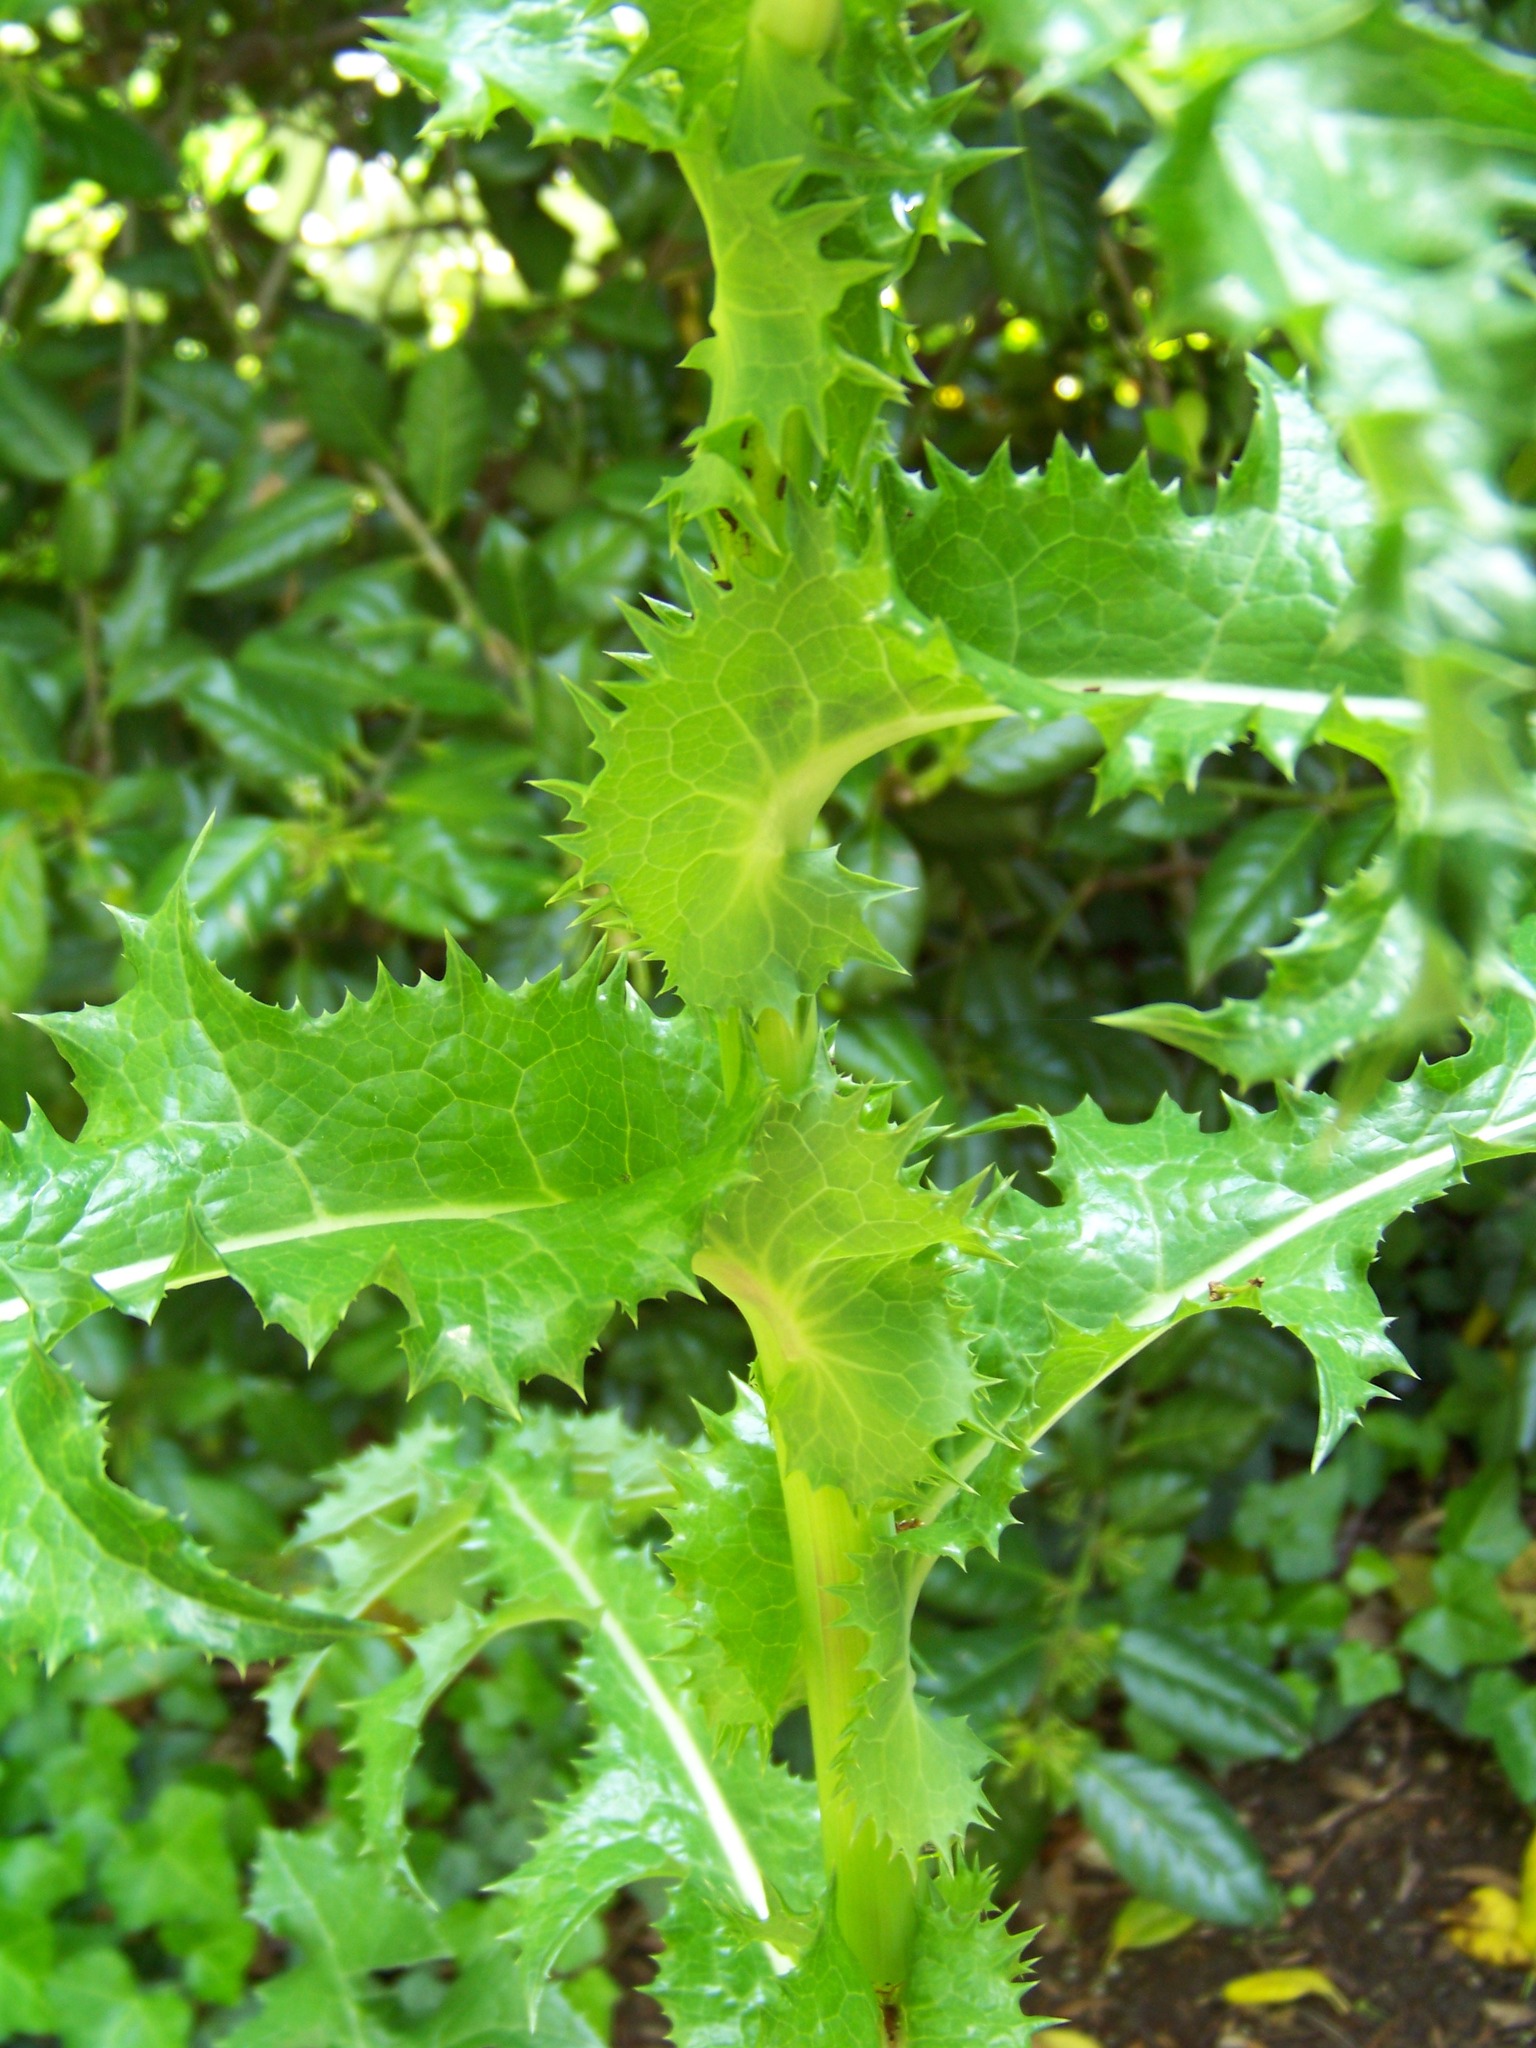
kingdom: Plantae
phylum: Tracheophyta
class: Magnoliopsida
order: Asterales
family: Asteraceae
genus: Sonchus
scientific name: Sonchus asper
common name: Prickly sow-thistle
